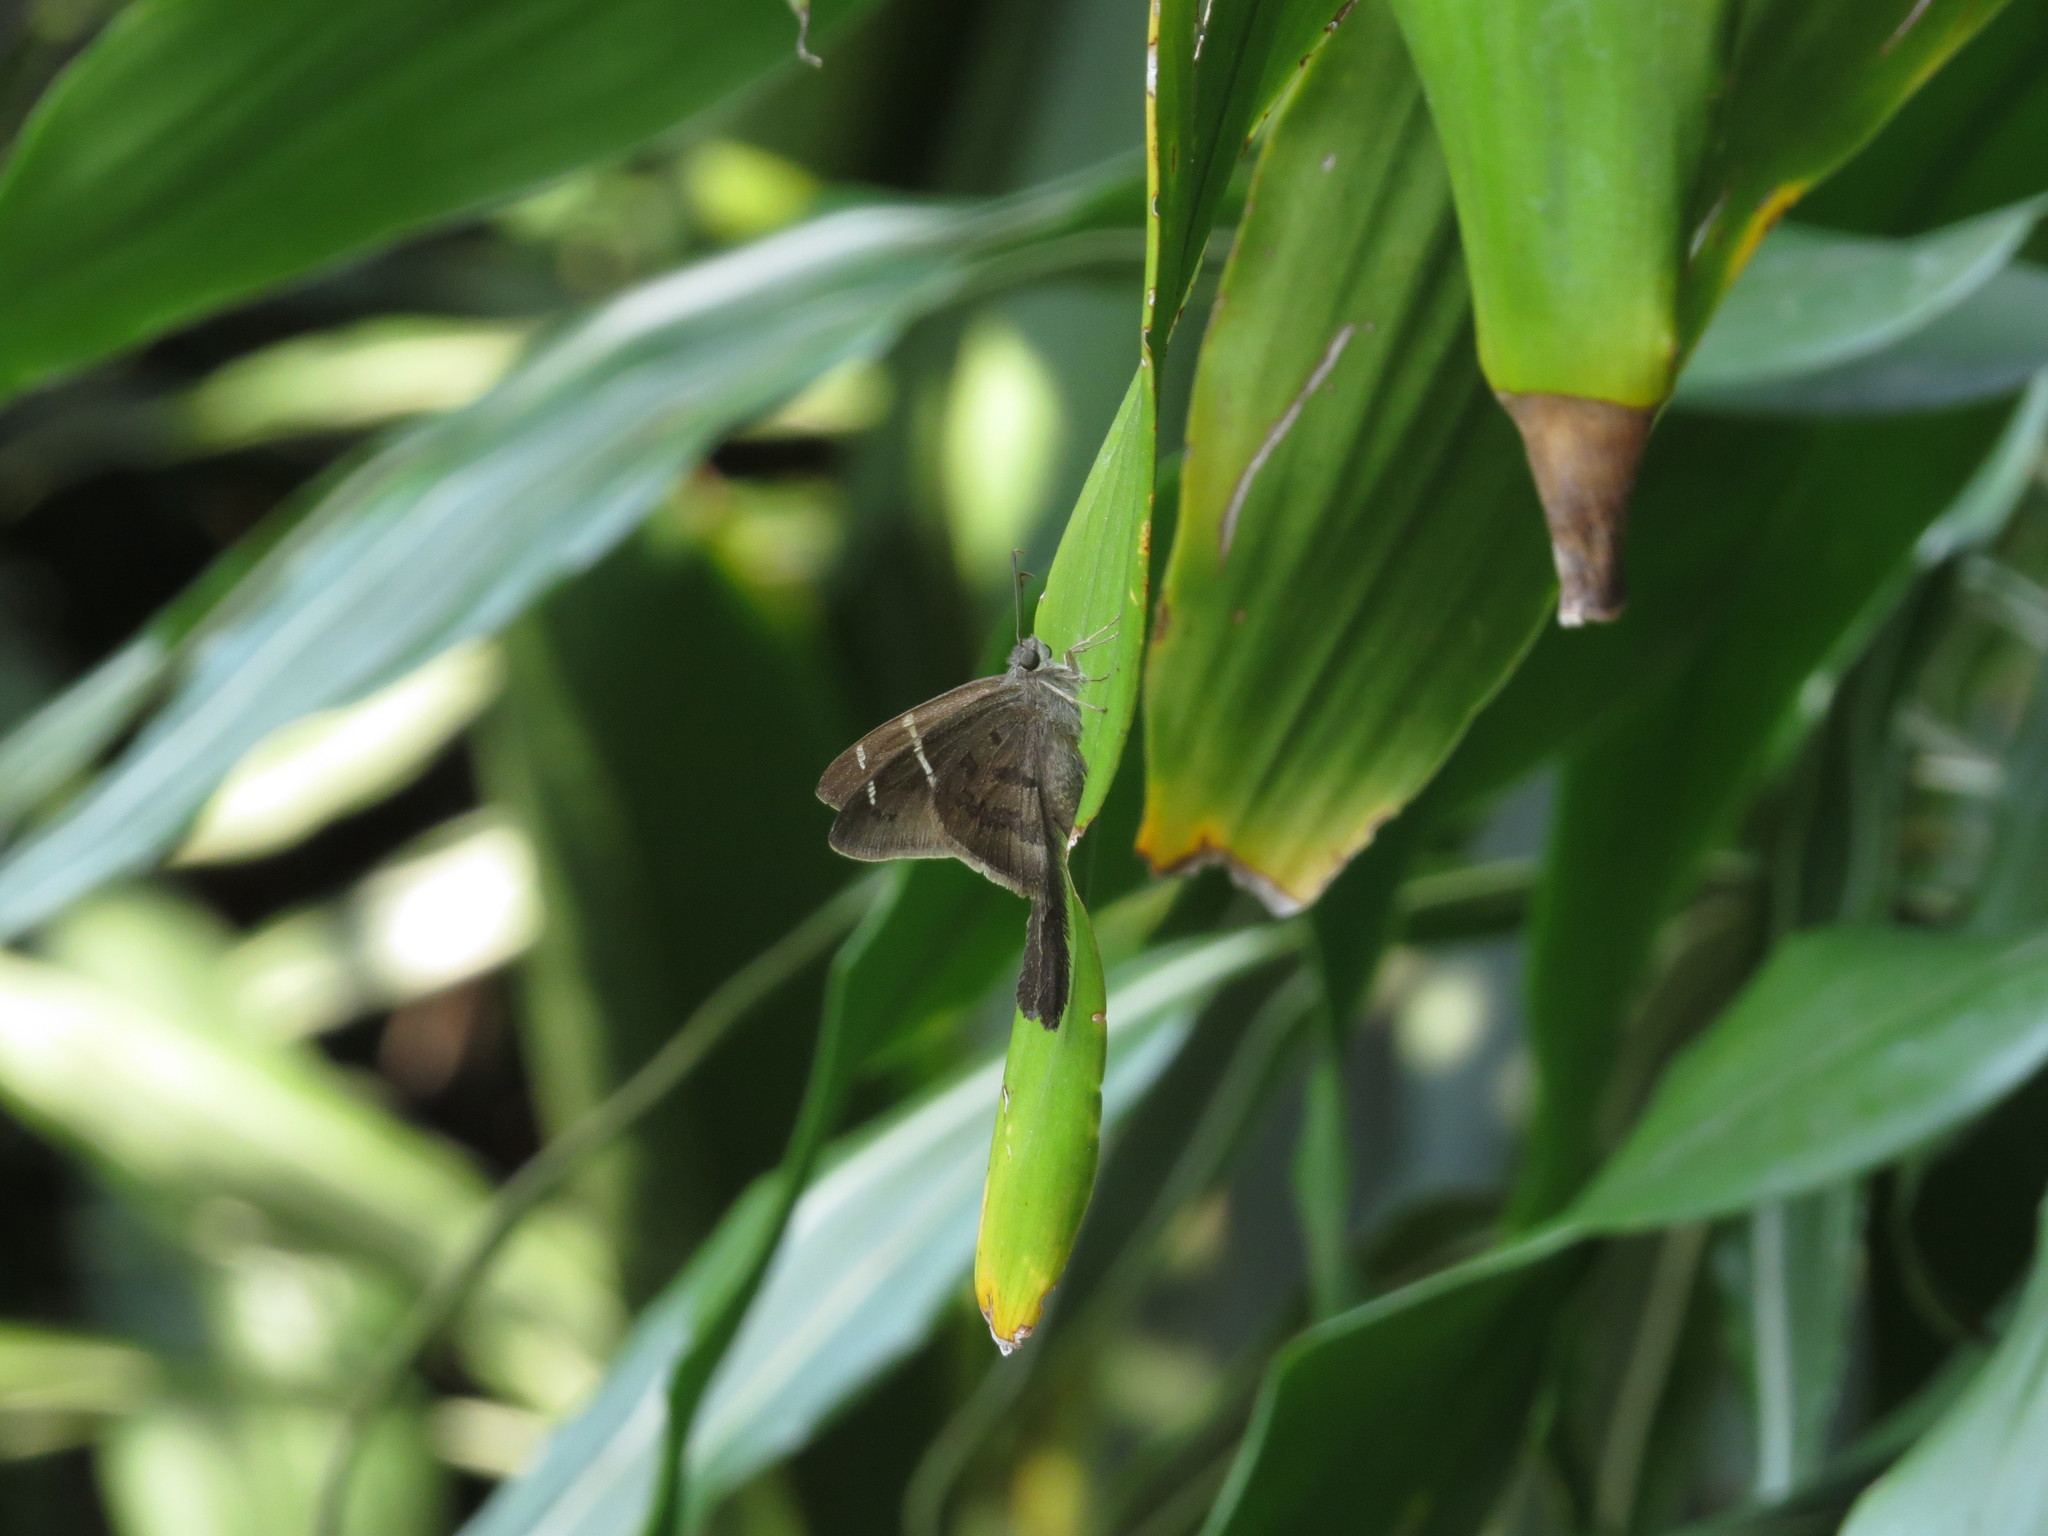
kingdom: Animalia
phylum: Arthropoda
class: Insecta
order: Lepidoptera
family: Hesperiidae
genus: Urbanus
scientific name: Urbanus procne
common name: Brown longtail
